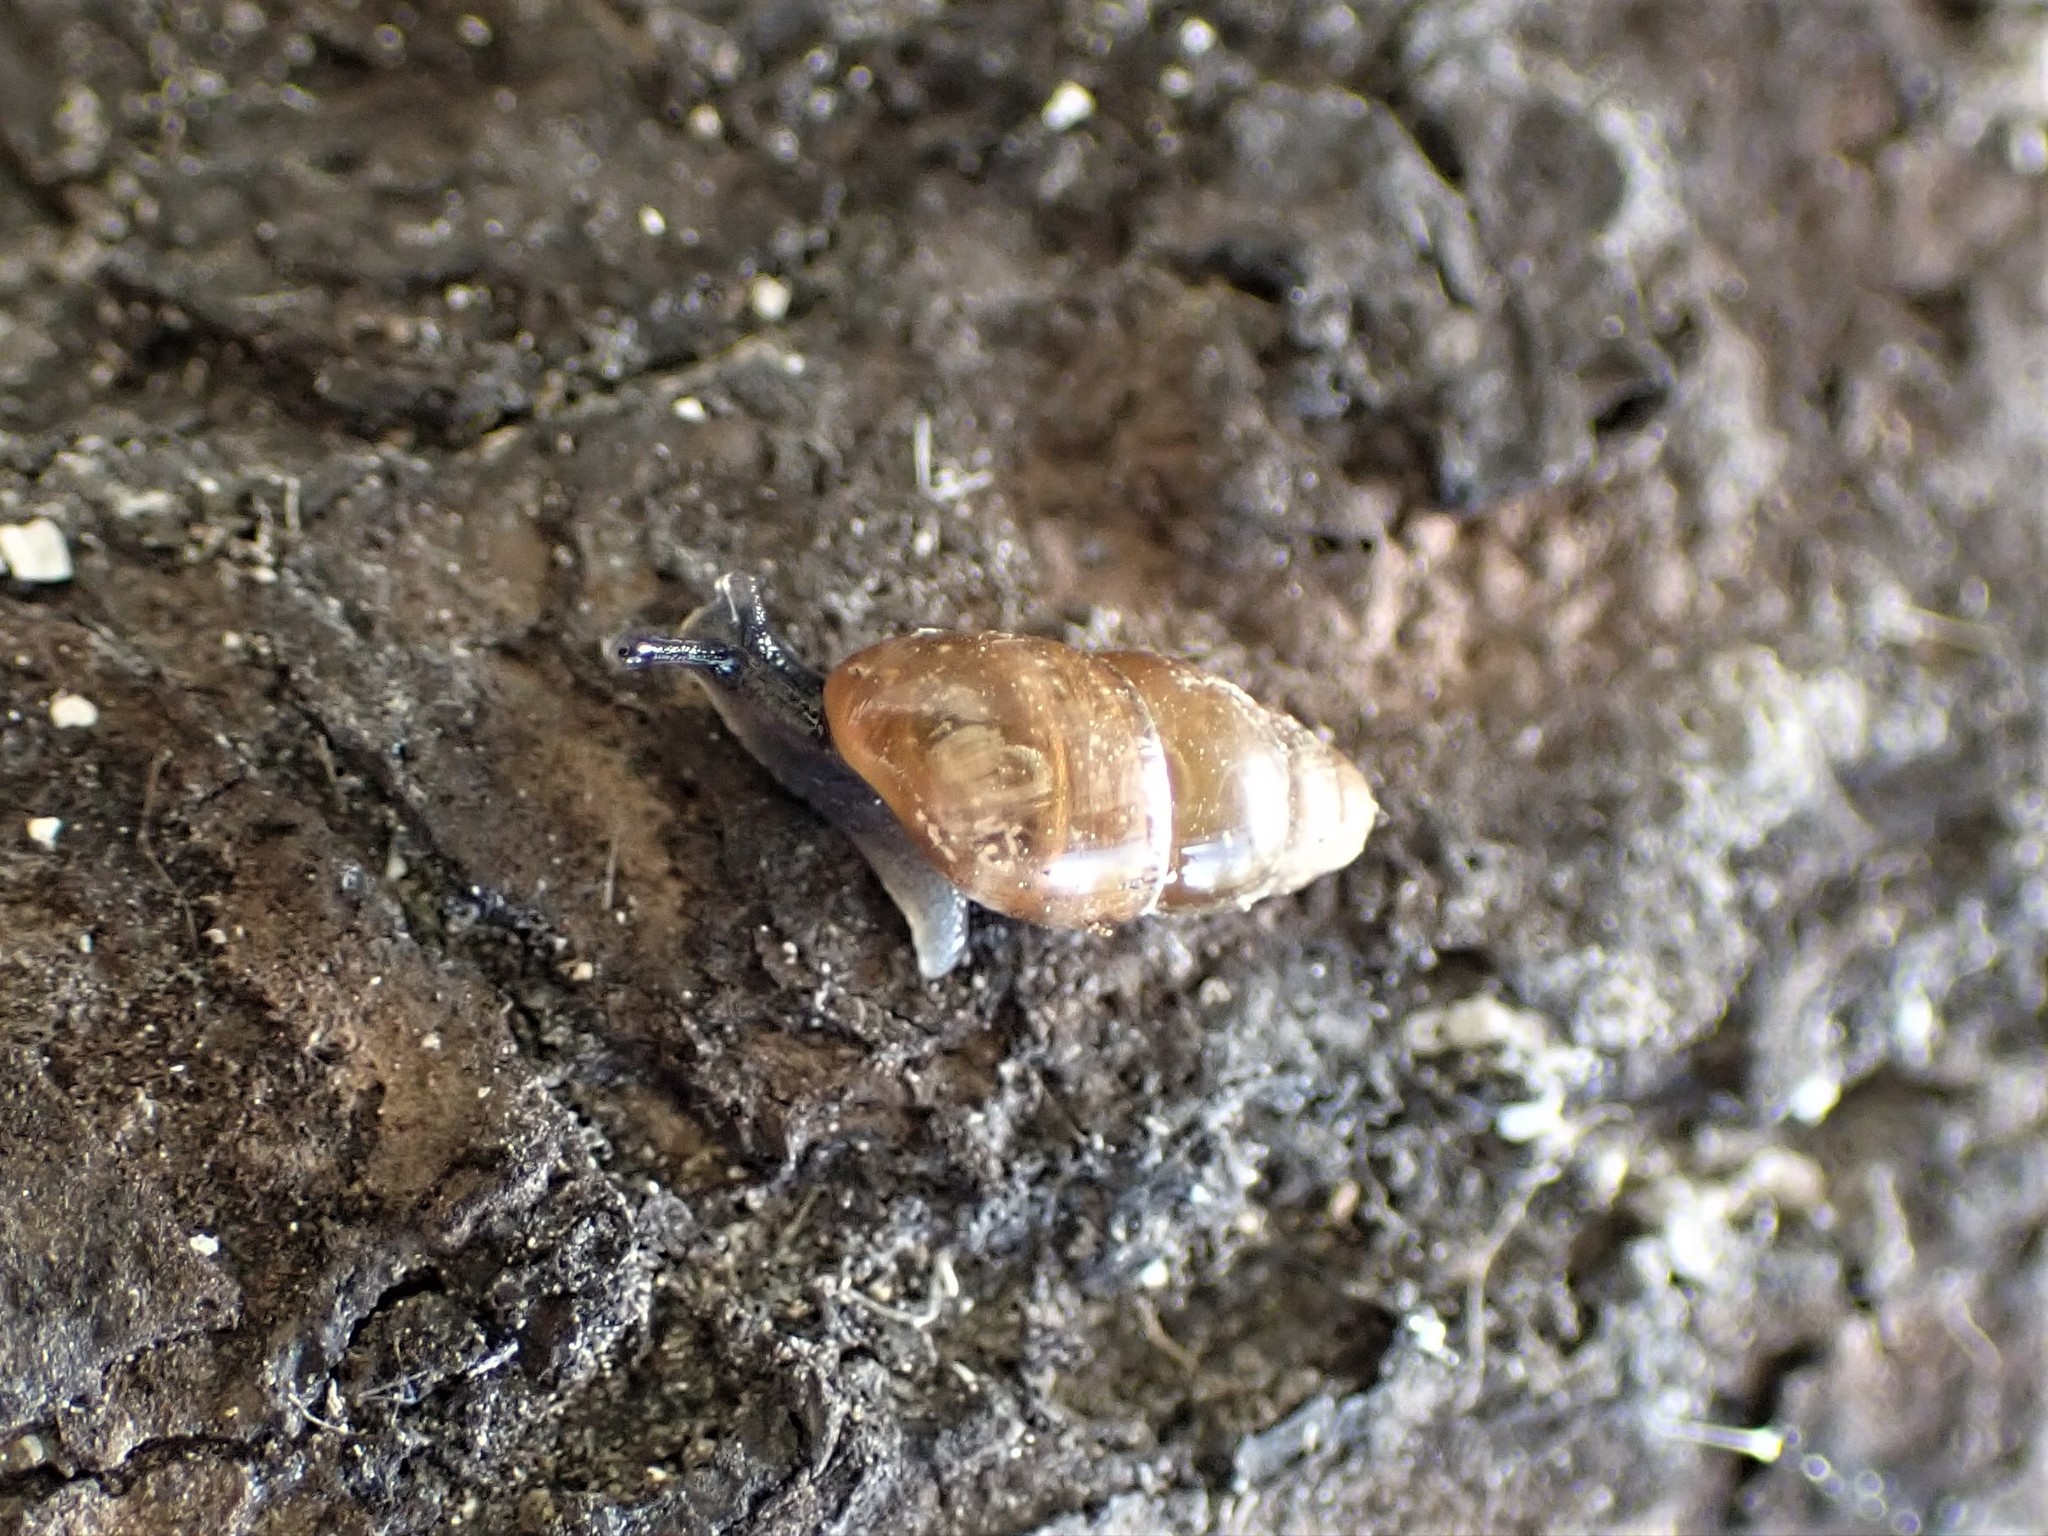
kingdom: Animalia
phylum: Mollusca
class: Gastropoda
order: Stylommatophora
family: Cochlicopidae
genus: Cochlicopa
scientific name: Cochlicopa lubrica
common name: Glossy pillar snail
